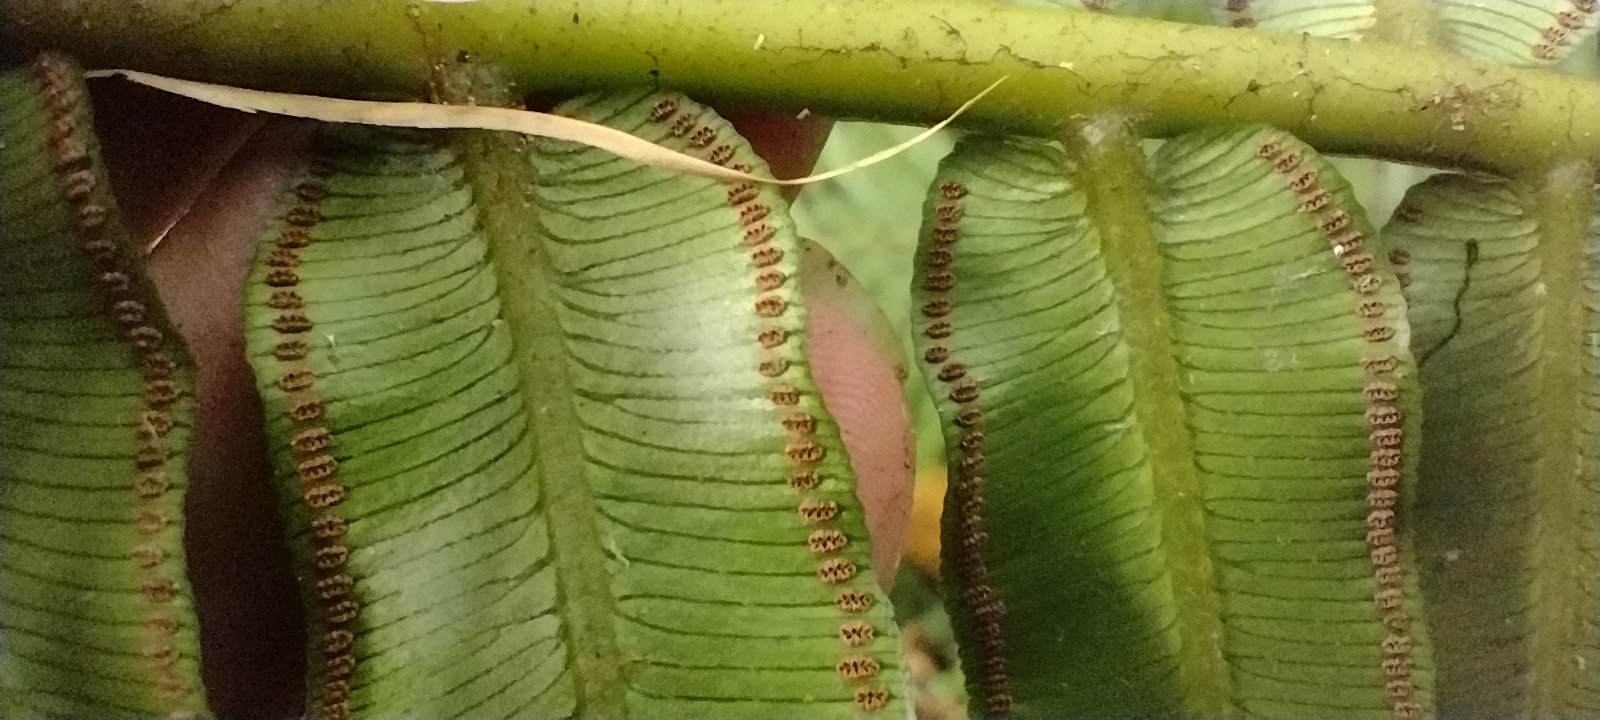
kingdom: Plantae
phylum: Tracheophyta
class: Polypodiopsida
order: Marattiales
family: Marattiaceae
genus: Angiopteris
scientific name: Angiopteris evecta
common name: Mule's-foot fern
